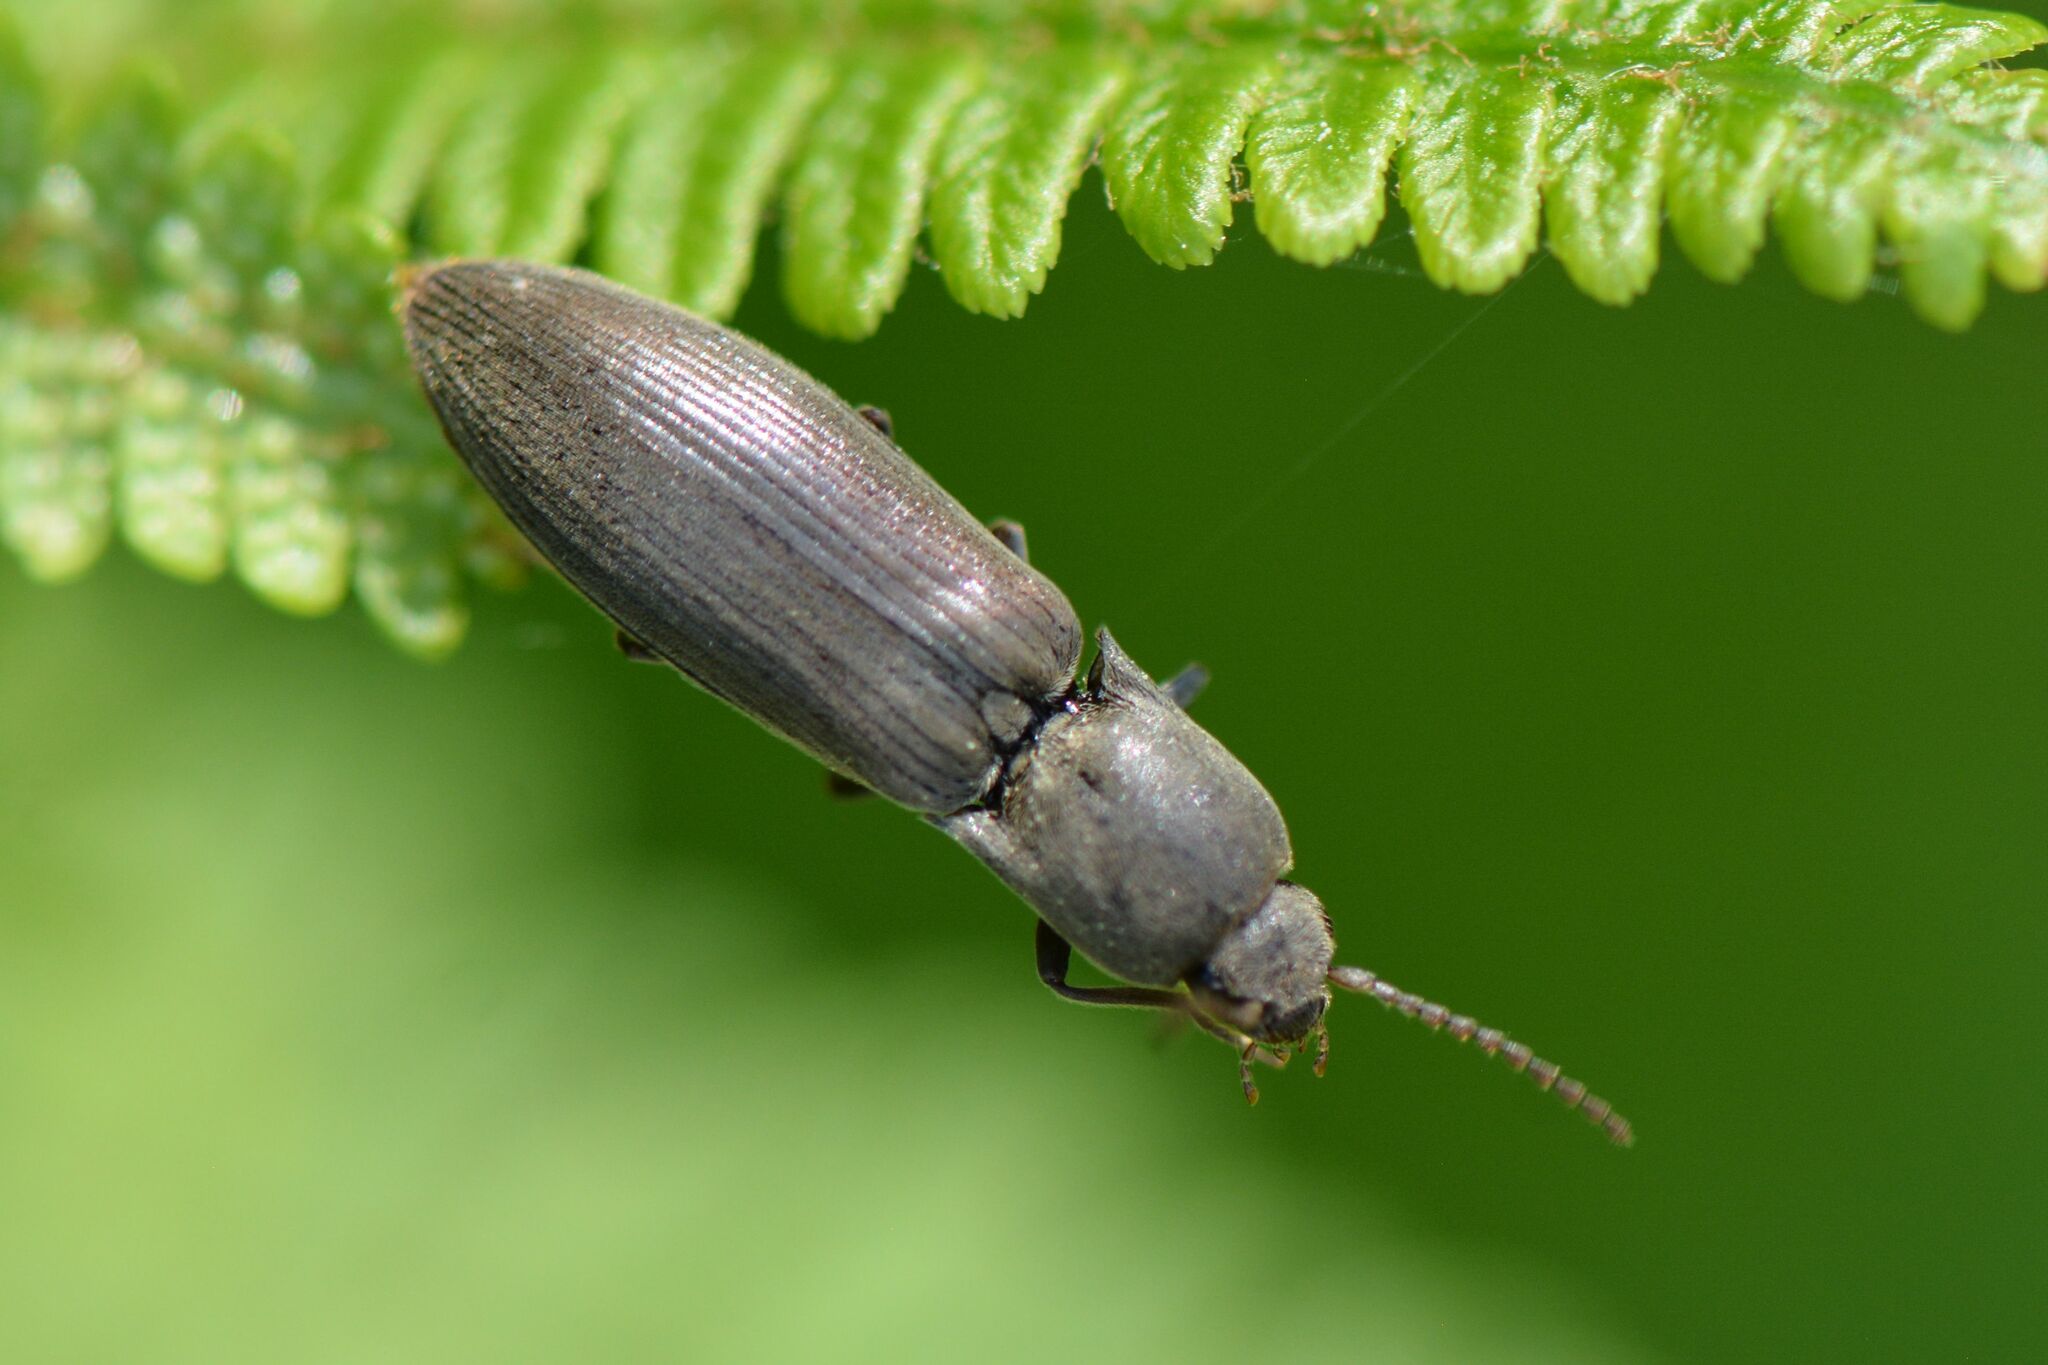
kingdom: Animalia
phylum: Arthropoda
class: Insecta
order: Coleoptera
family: Elateridae
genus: Agriotes
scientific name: Agriotes pilosellus
